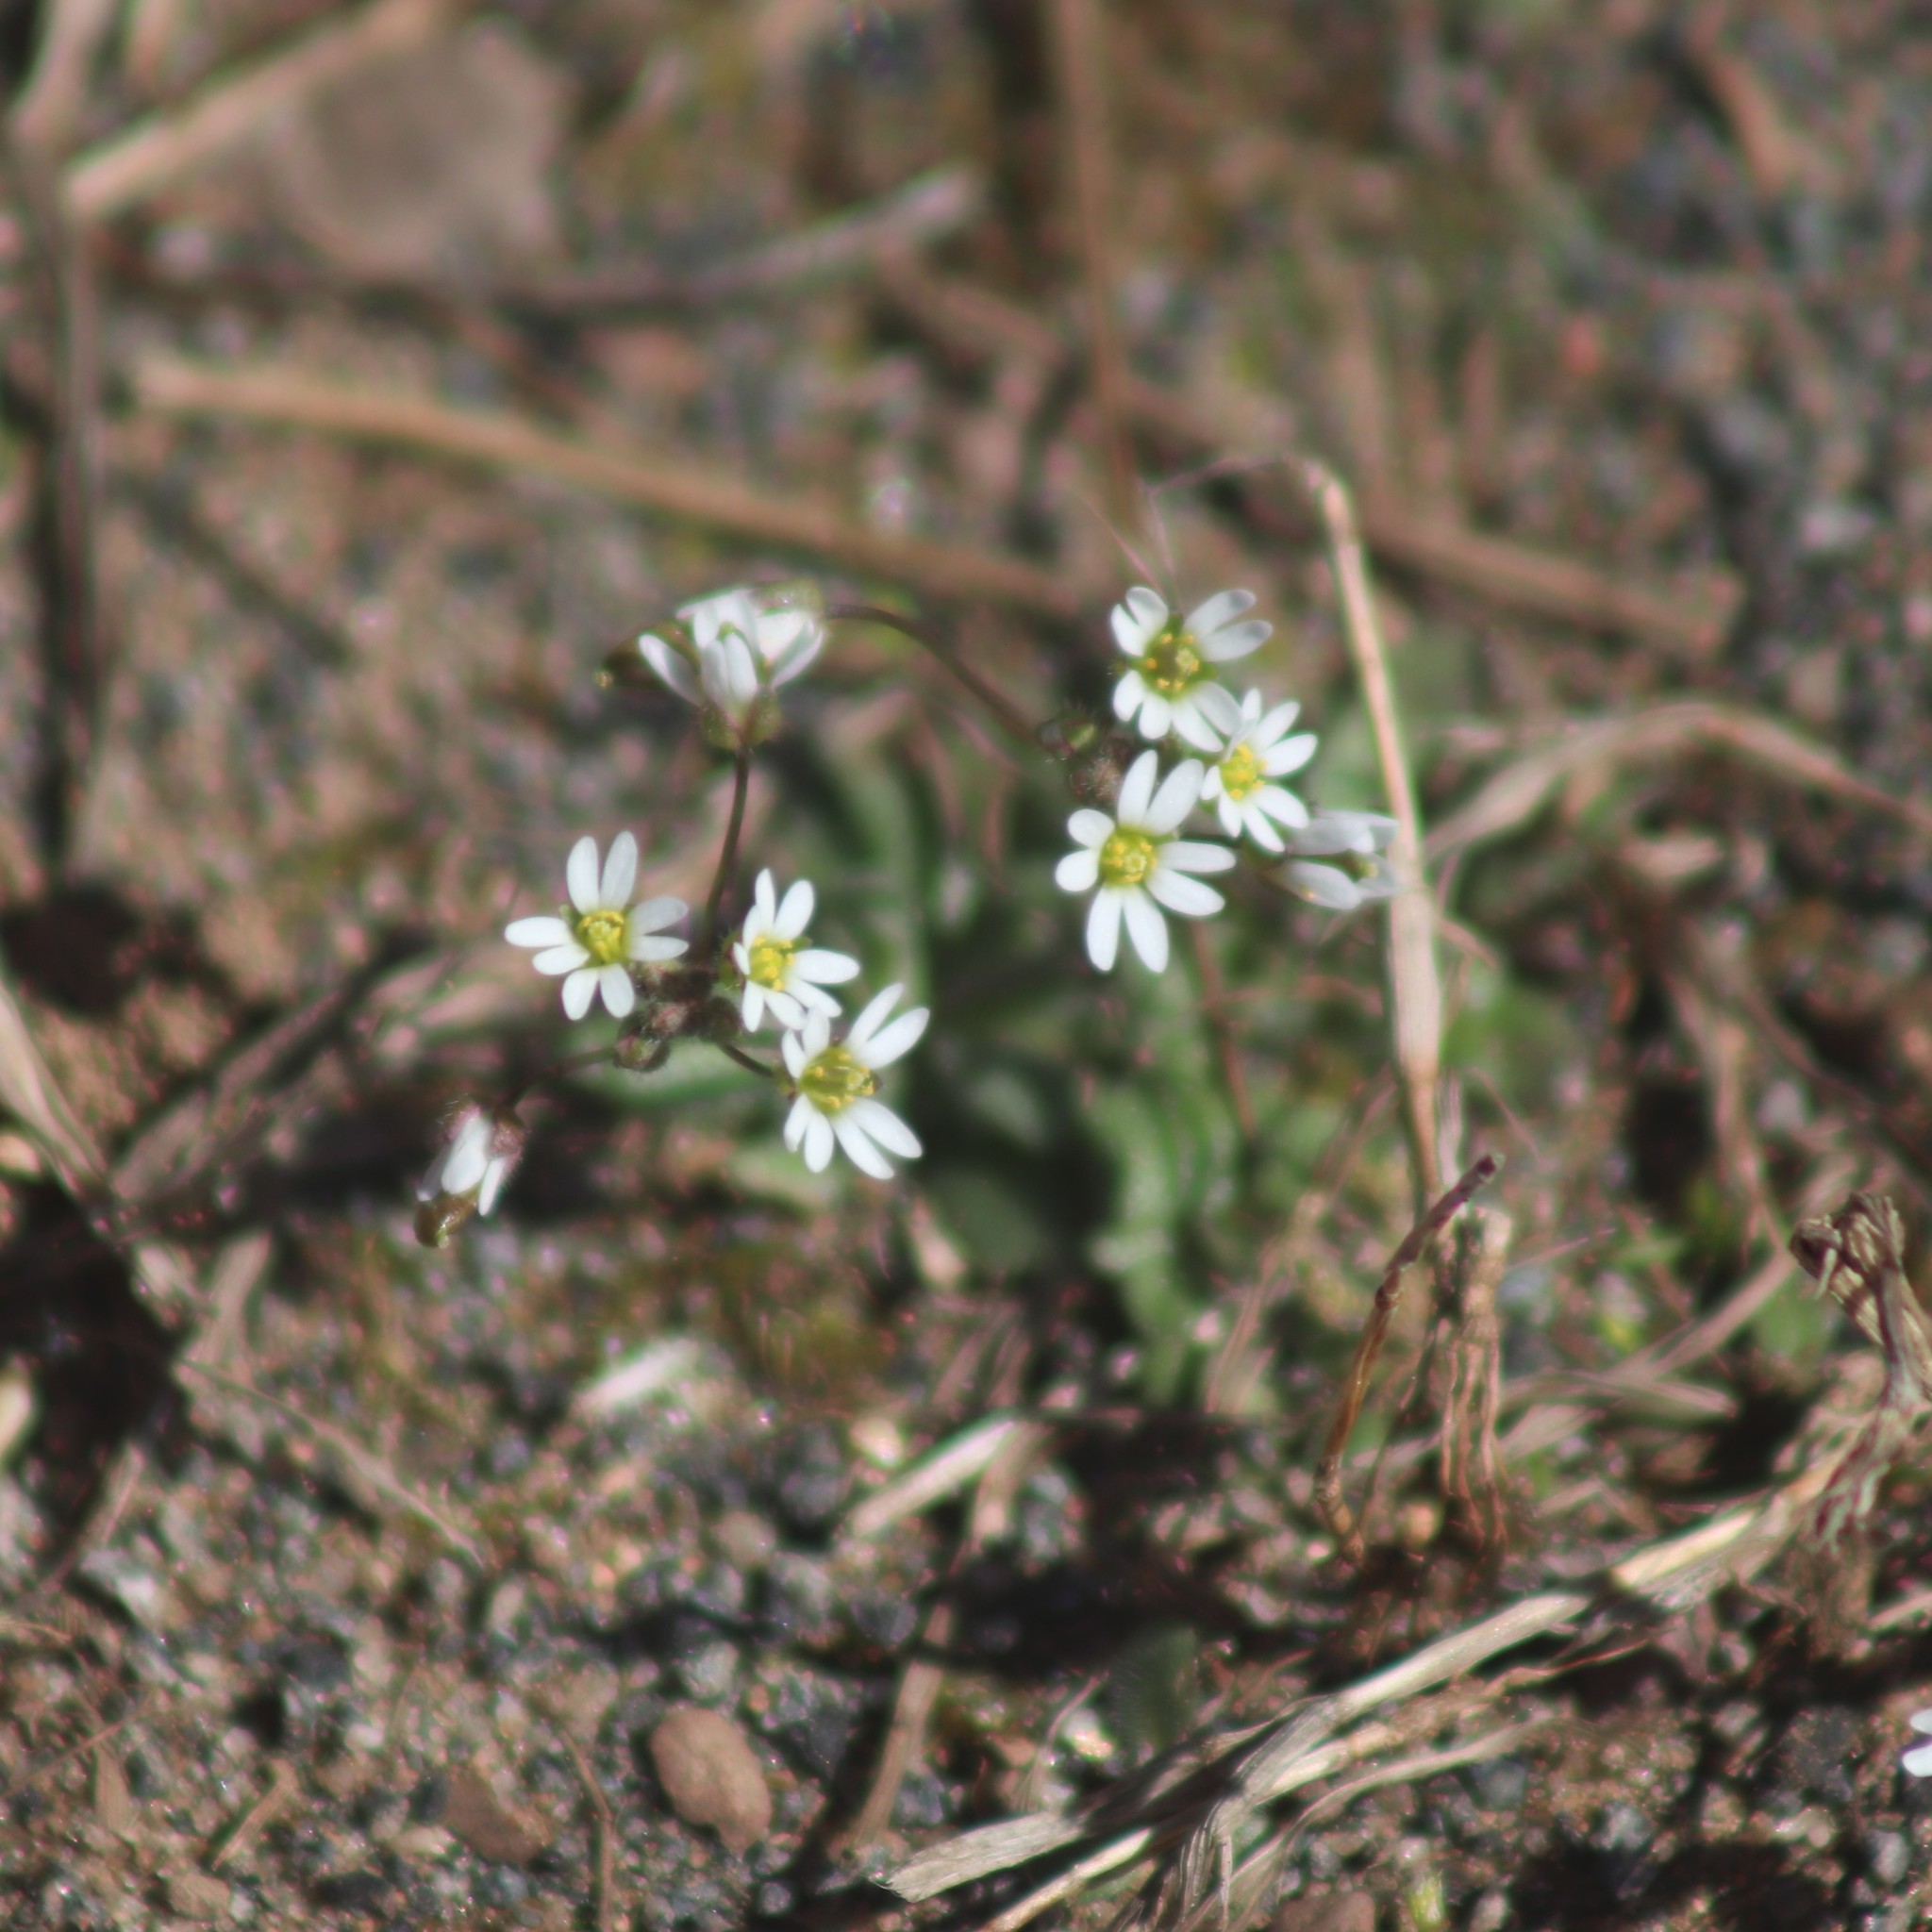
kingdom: Plantae
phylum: Tracheophyta
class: Magnoliopsida
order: Brassicales
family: Brassicaceae
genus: Draba
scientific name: Draba verna
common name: Spring draba
